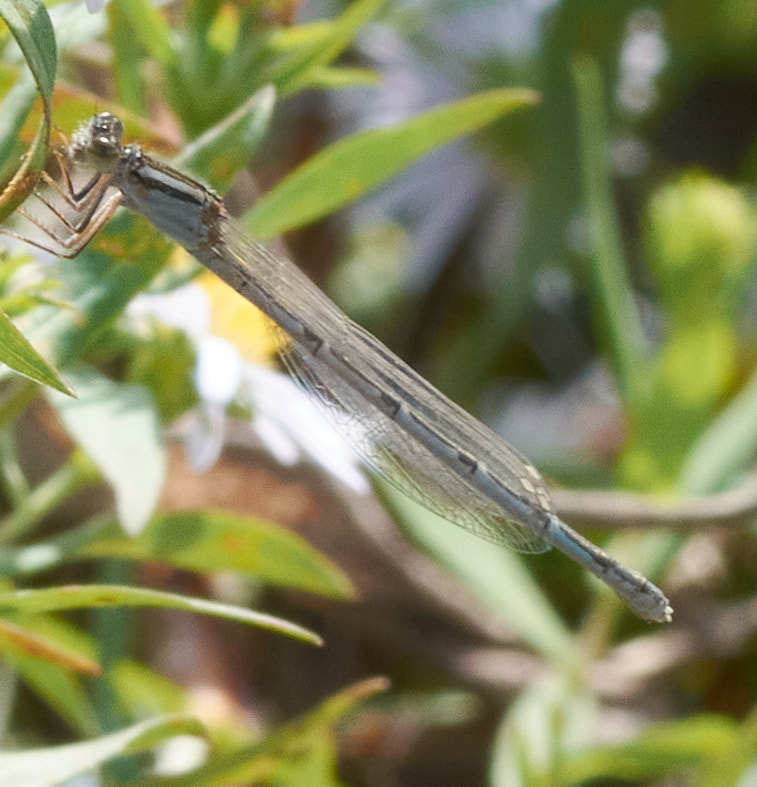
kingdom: Animalia
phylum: Arthropoda
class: Insecta
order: Odonata
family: Coenagrionidae
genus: Enallagma
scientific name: Enallagma civile
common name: Damselfly
